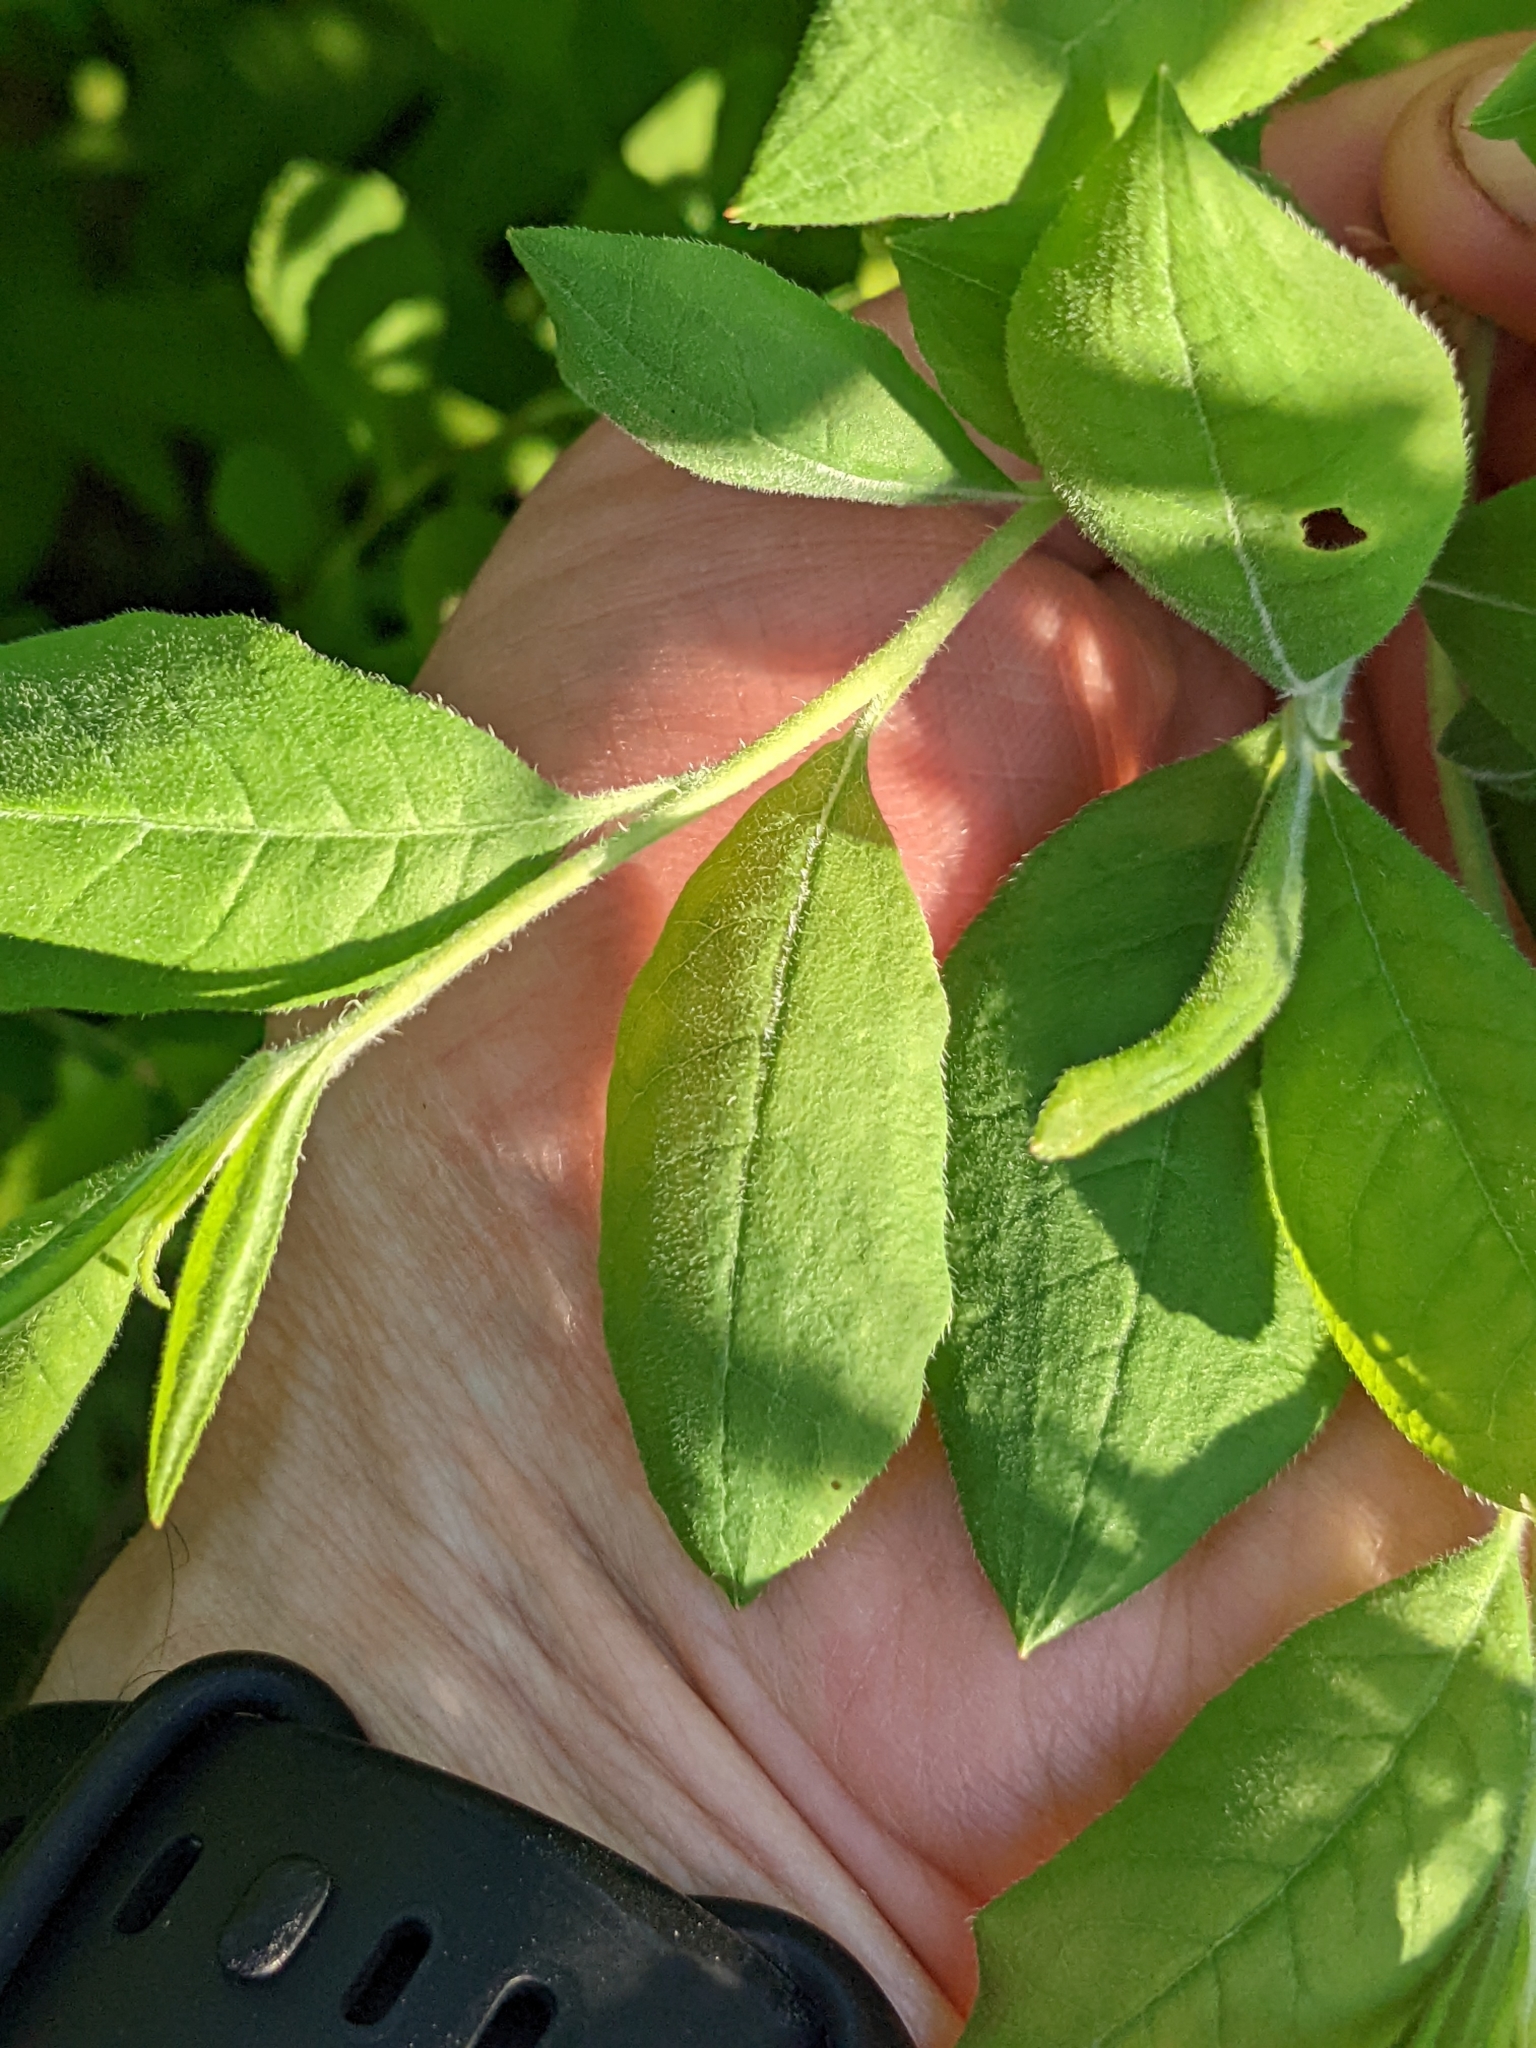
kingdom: Plantae
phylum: Tracheophyta
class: Magnoliopsida
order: Ericales
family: Ericaceae
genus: Rhododendron
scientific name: Rhododendron roseum
